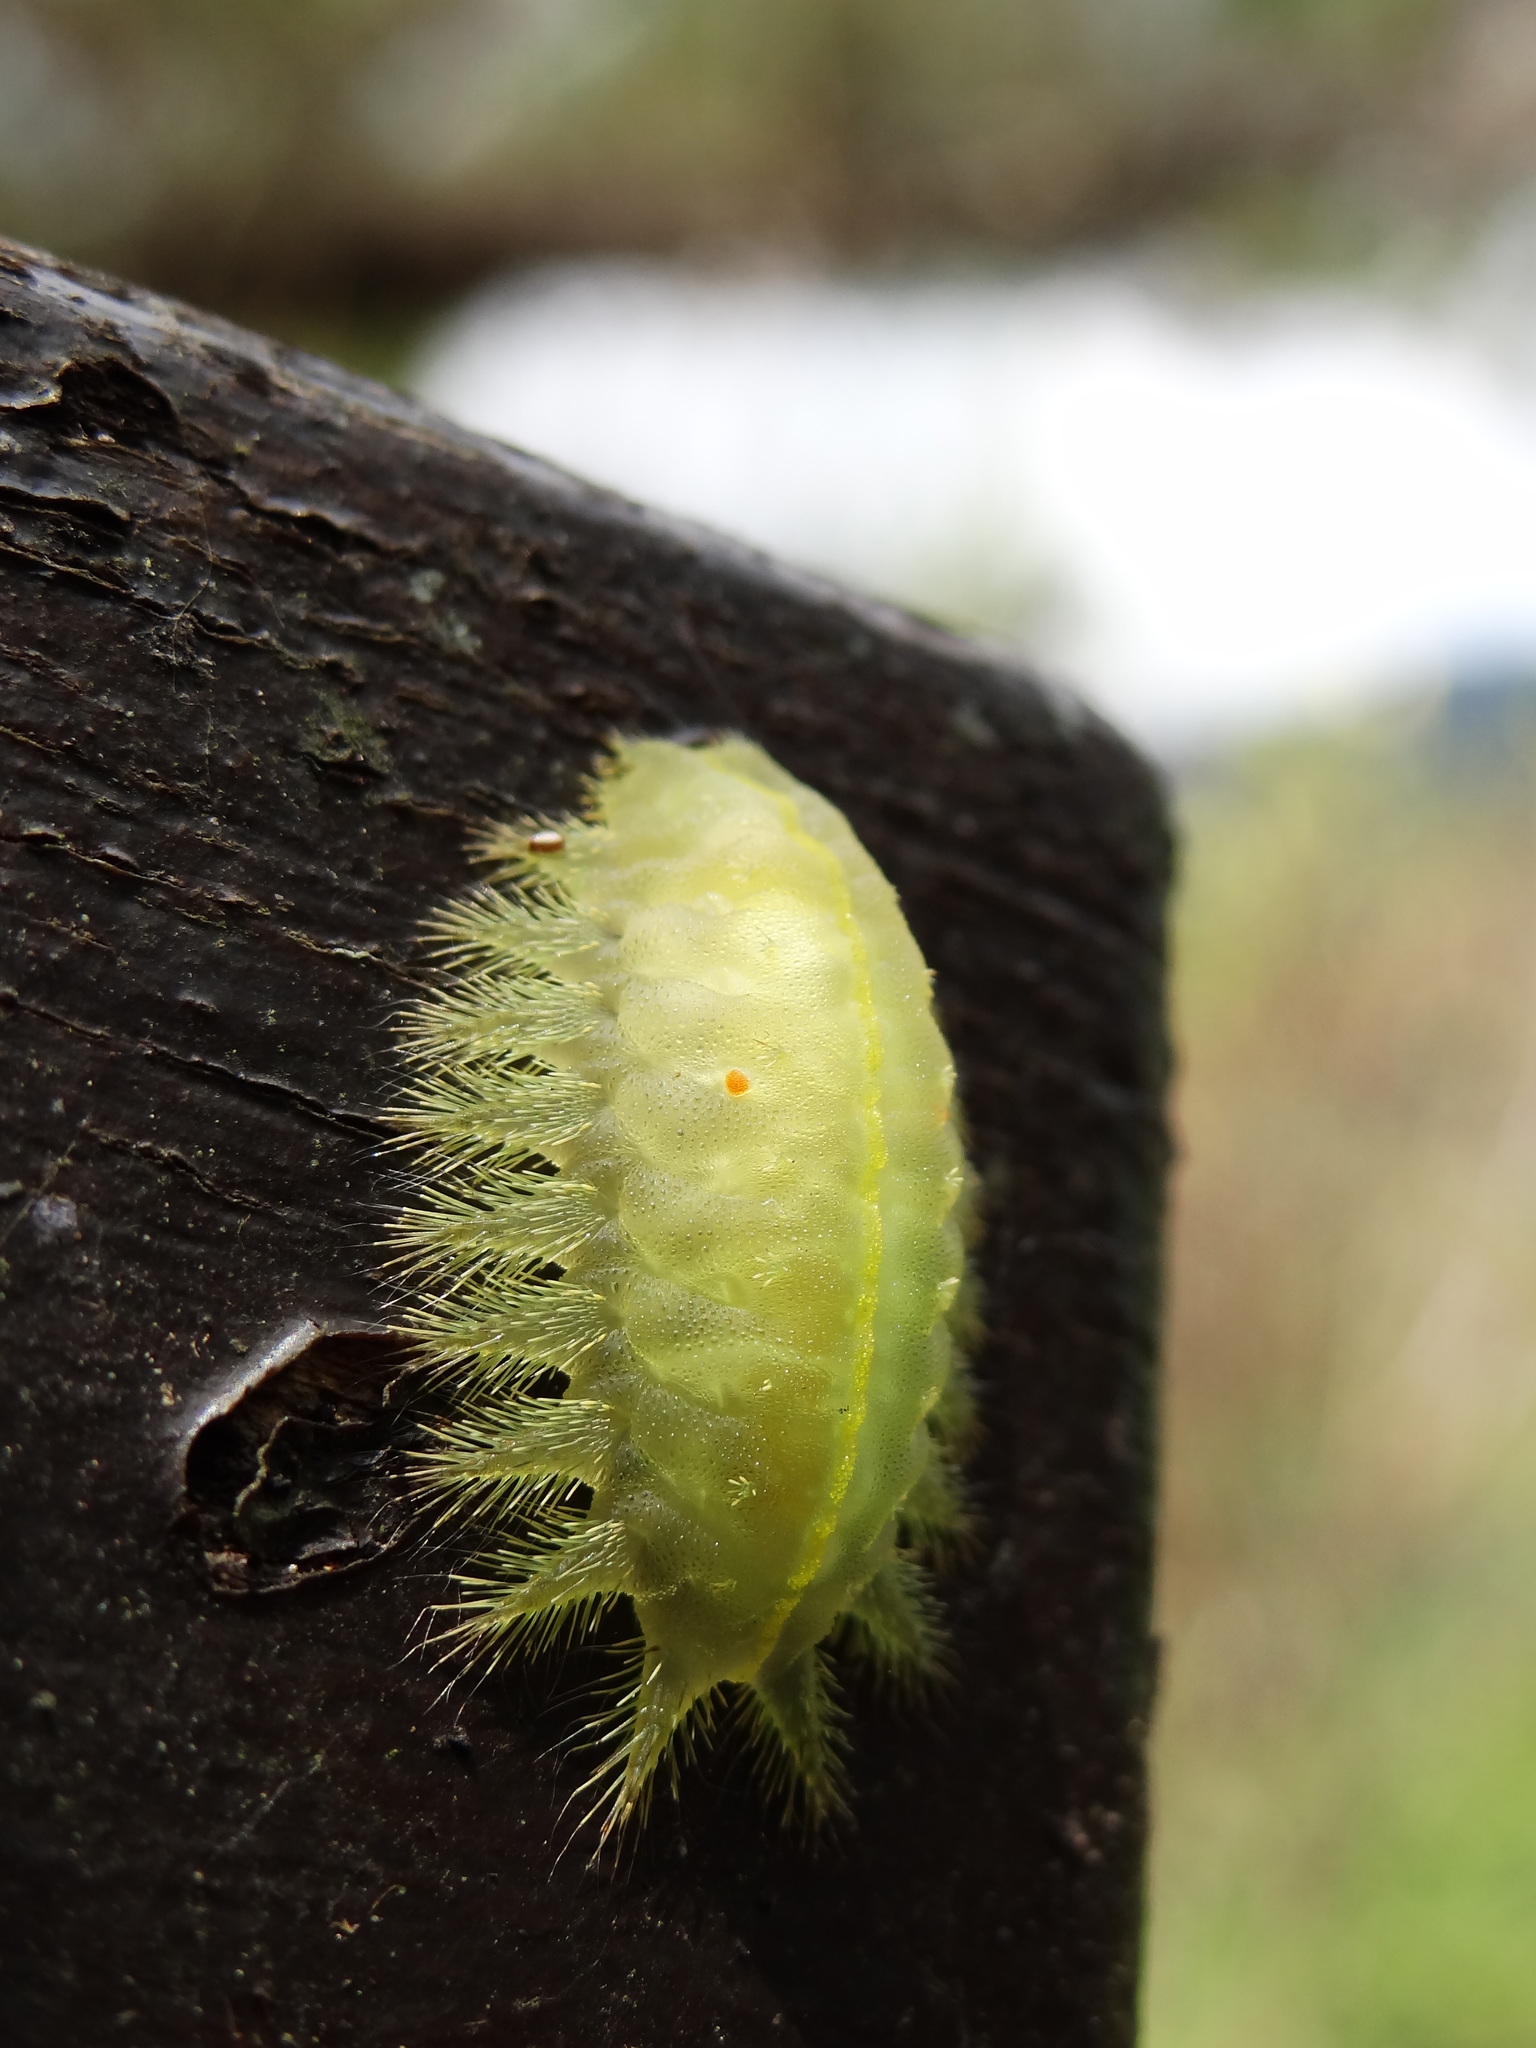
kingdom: Animalia
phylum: Arthropoda
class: Insecta
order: Lepidoptera
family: Limacodidae
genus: Thosea
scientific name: Thosea sinensis
